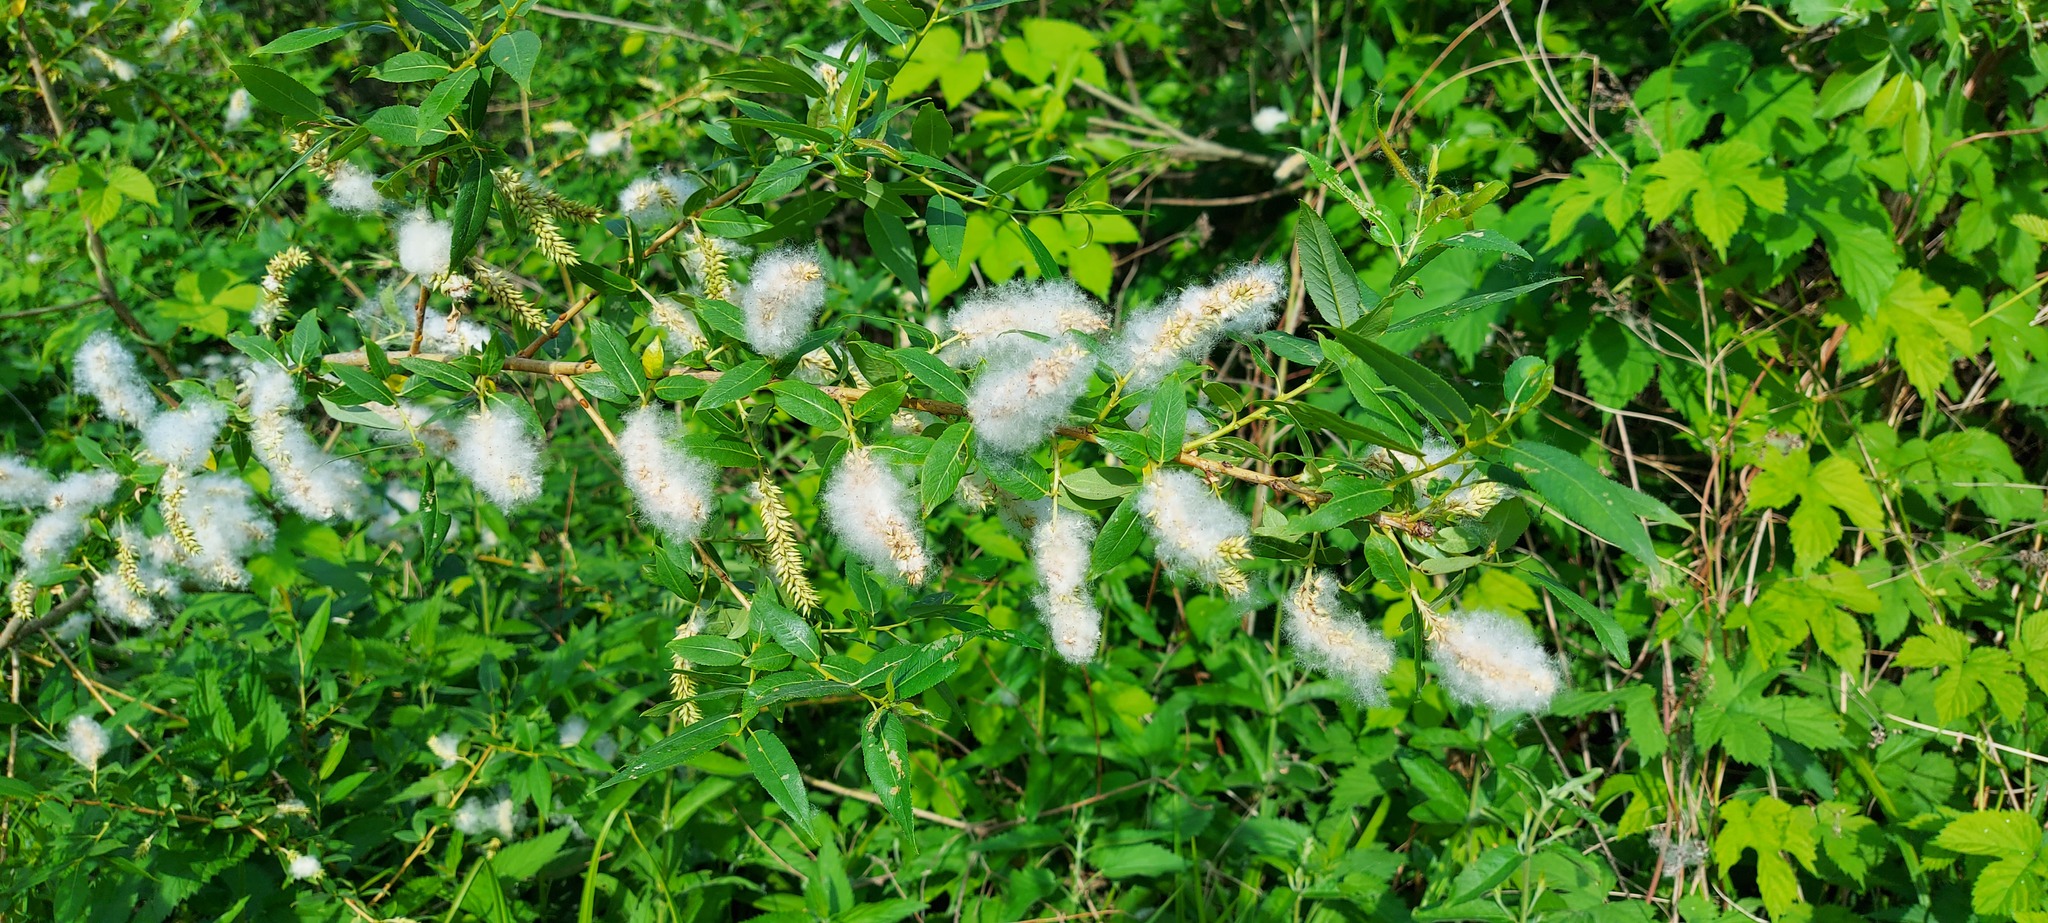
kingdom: Plantae
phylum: Tracheophyta
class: Magnoliopsida
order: Malpighiales
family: Salicaceae
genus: Salix
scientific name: Salix triandra
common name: Almond willow
